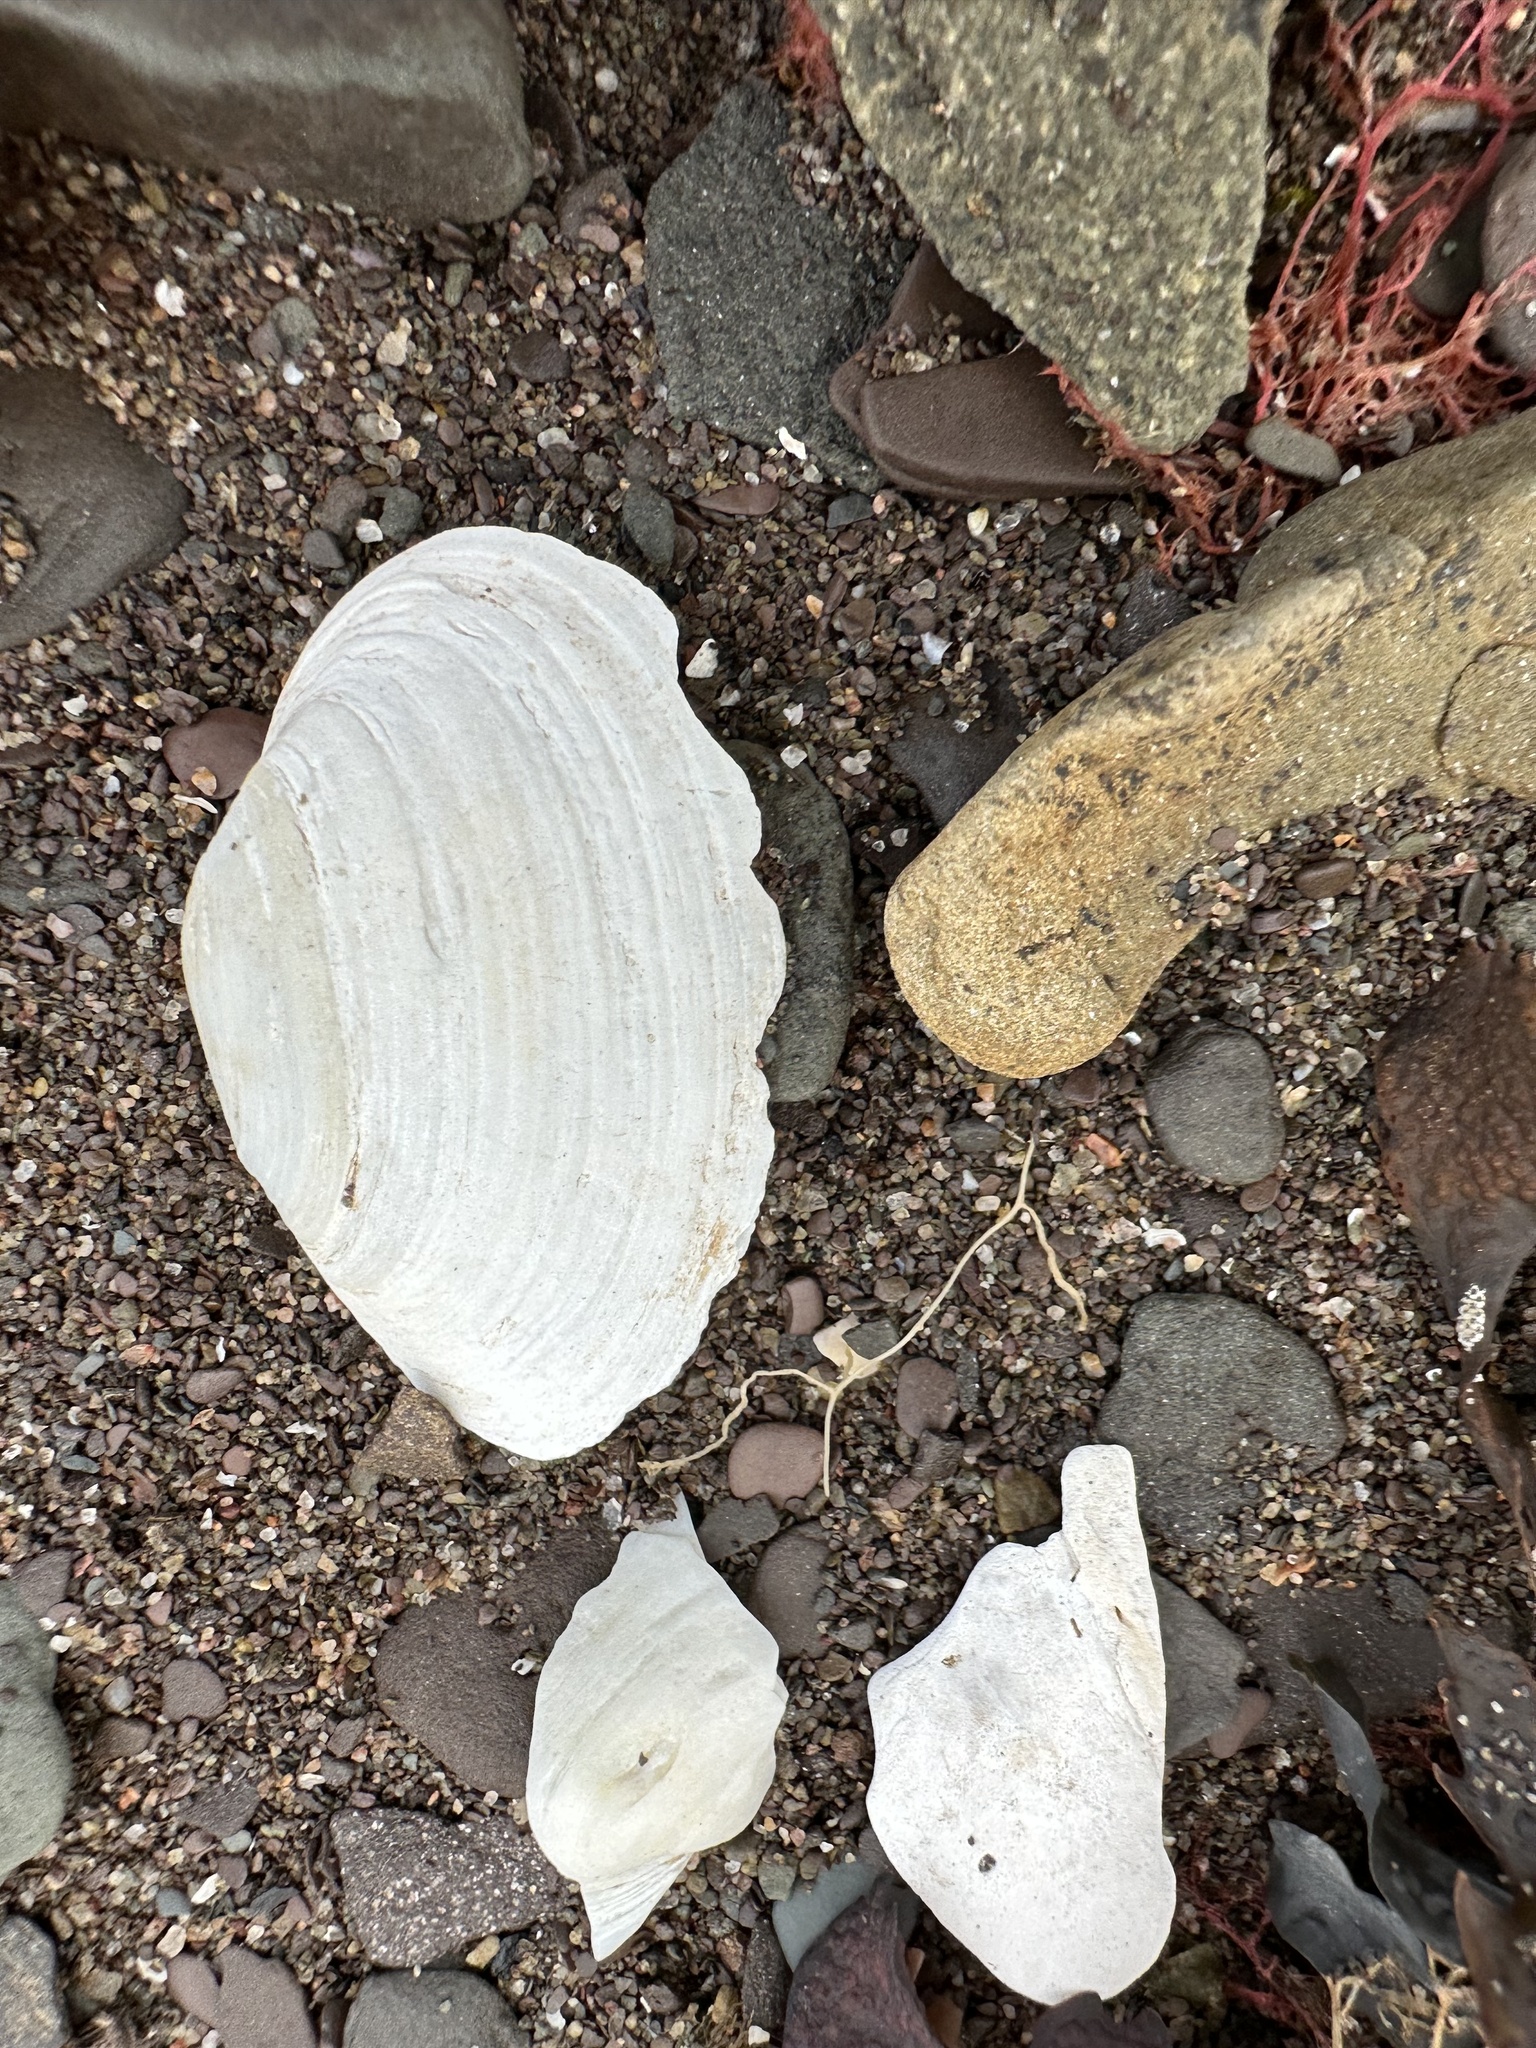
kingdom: Animalia
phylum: Mollusca
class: Bivalvia
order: Myida
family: Myidae
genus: Mya
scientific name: Mya arenaria
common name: Soft-shelled clam
